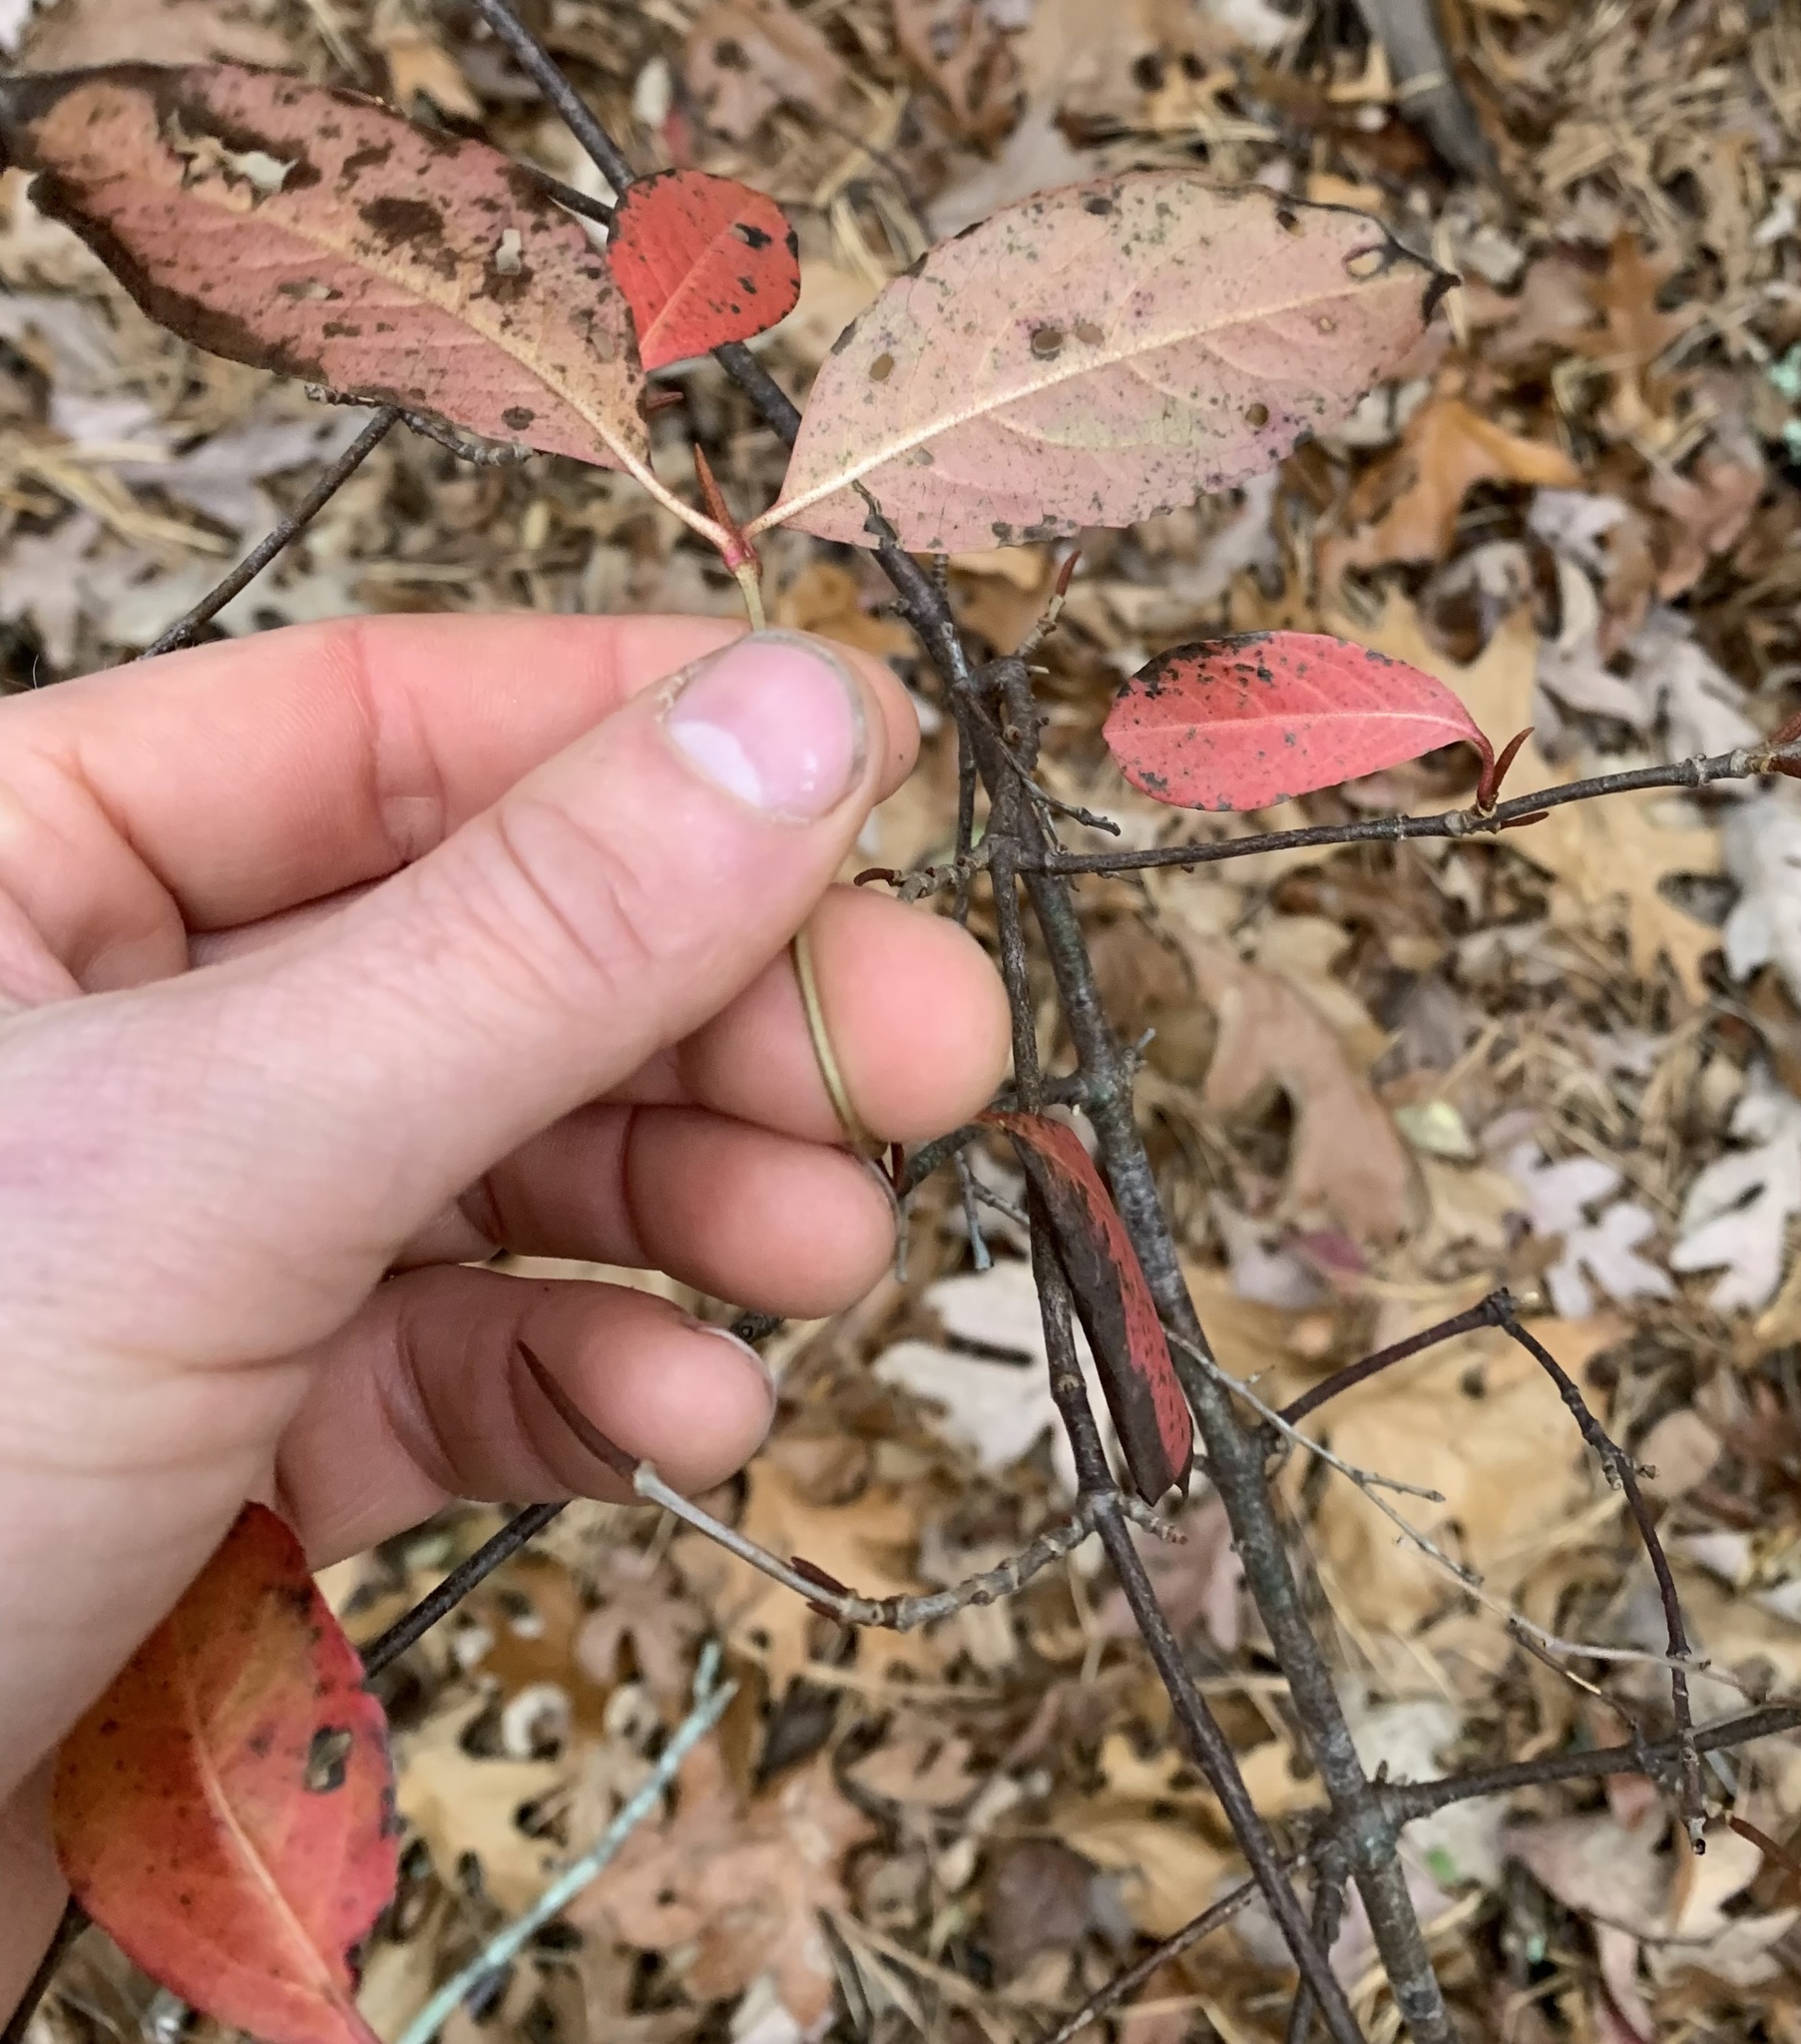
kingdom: Plantae
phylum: Tracheophyta
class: Magnoliopsida
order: Dipsacales
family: Viburnaceae
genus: Viburnum
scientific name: Viburnum cassinoides
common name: Swamp haw
